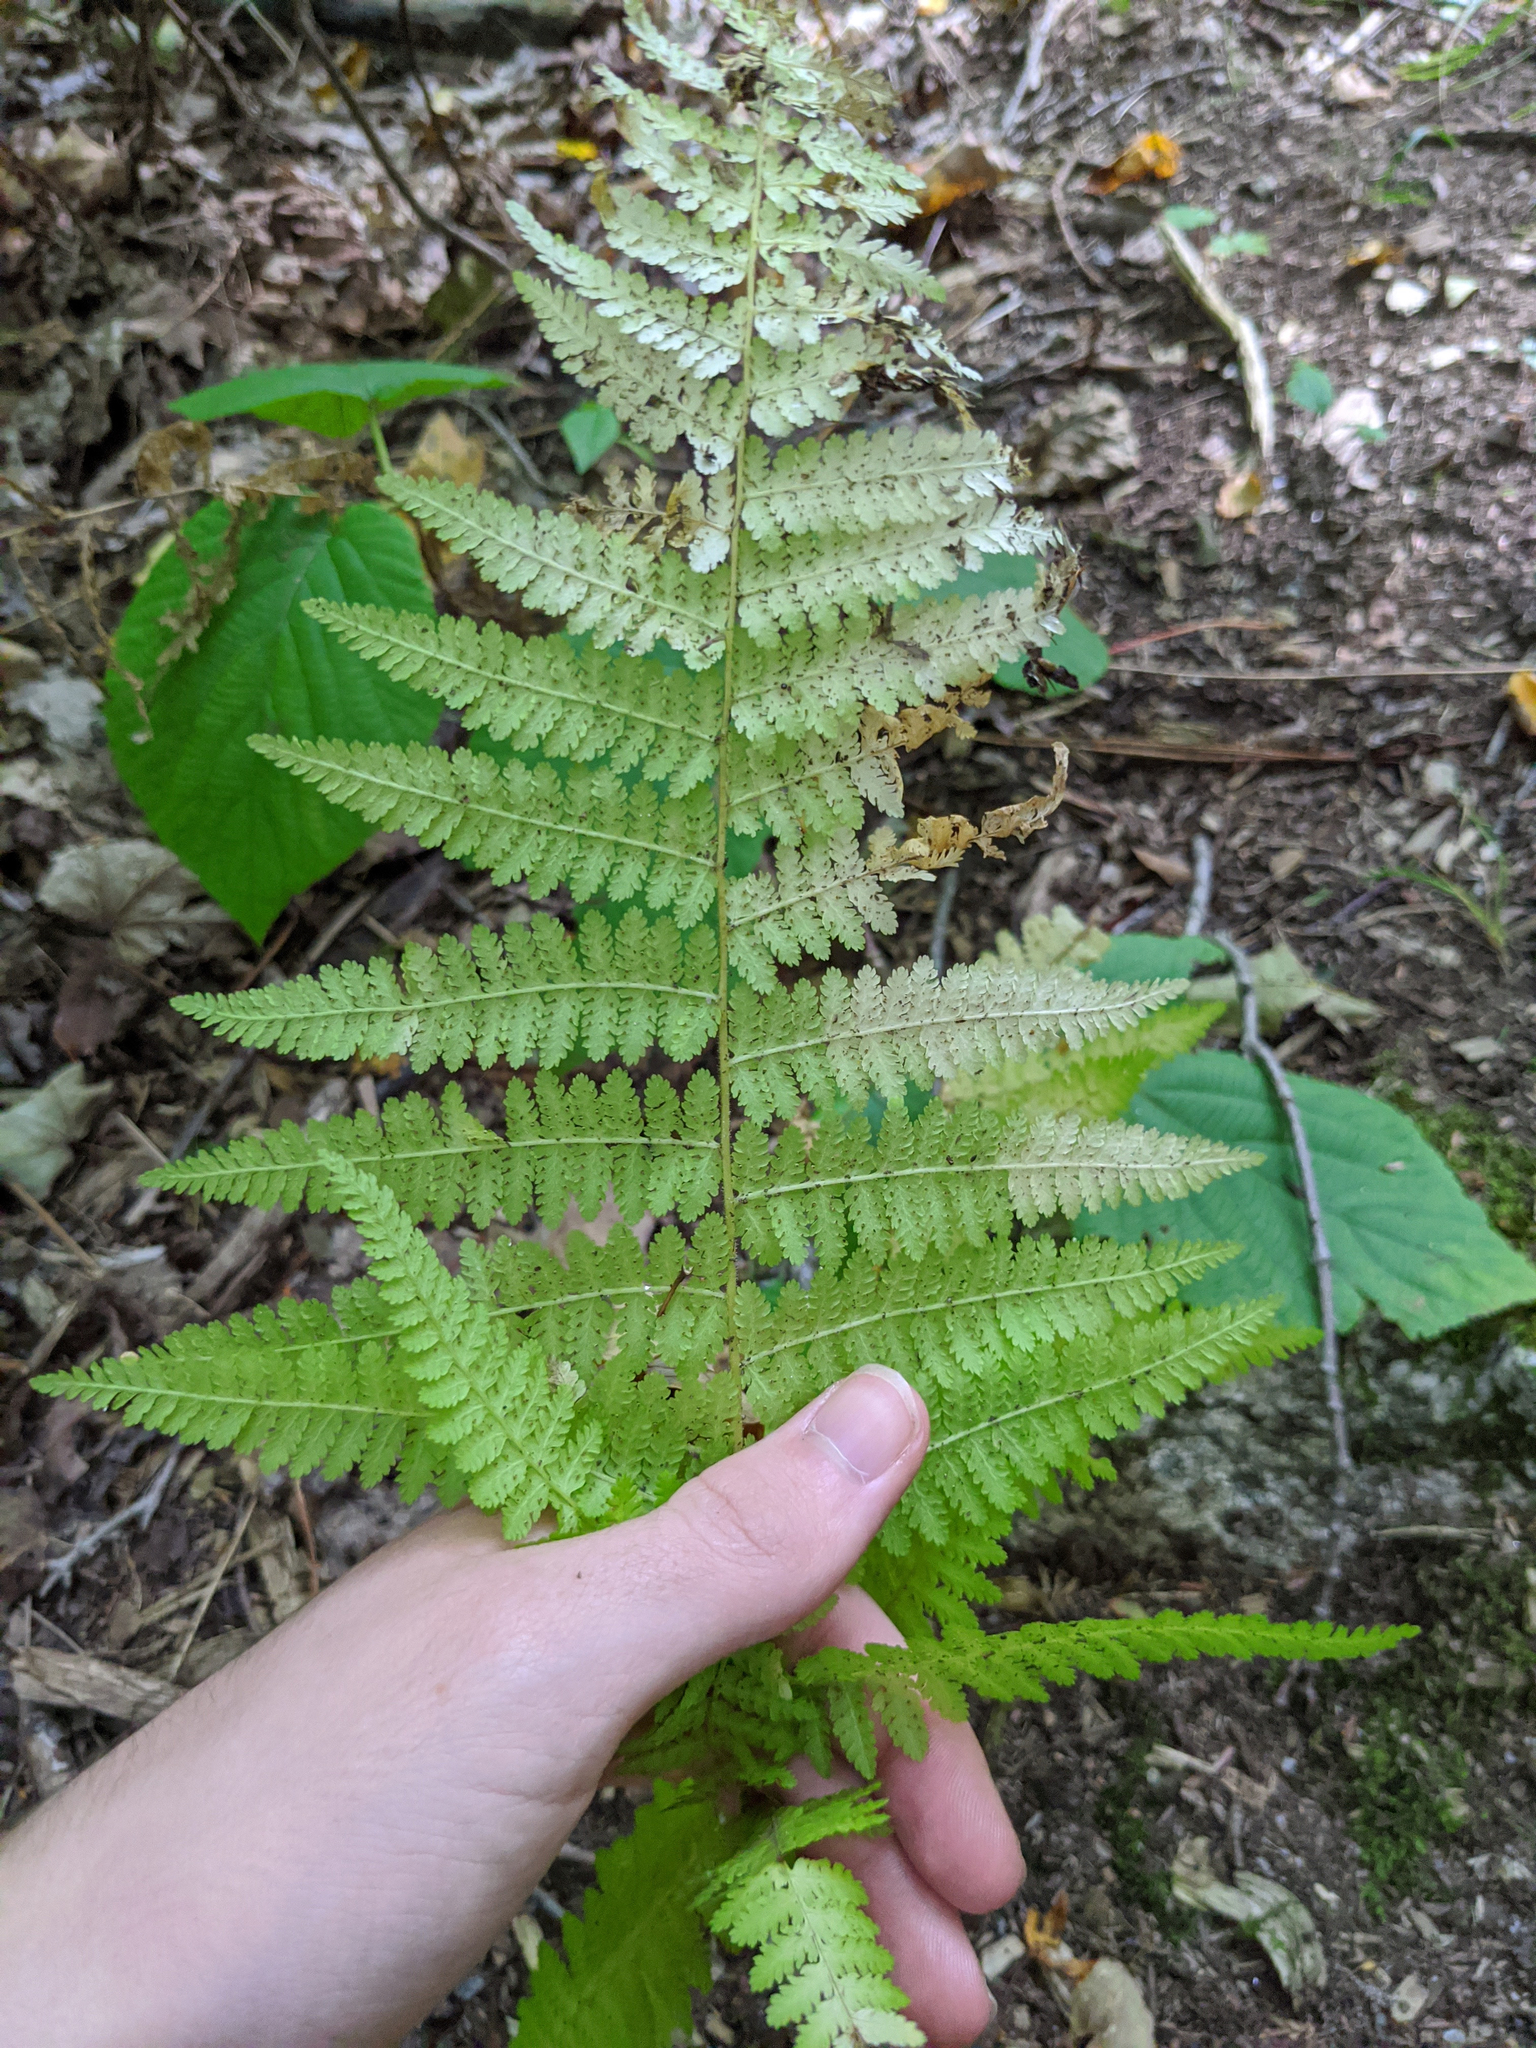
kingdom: Plantae
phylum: Tracheophyta
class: Polypodiopsida
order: Polypodiales
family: Dennstaedtiaceae
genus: Sitobolium
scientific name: Sitobolium punctilobum
